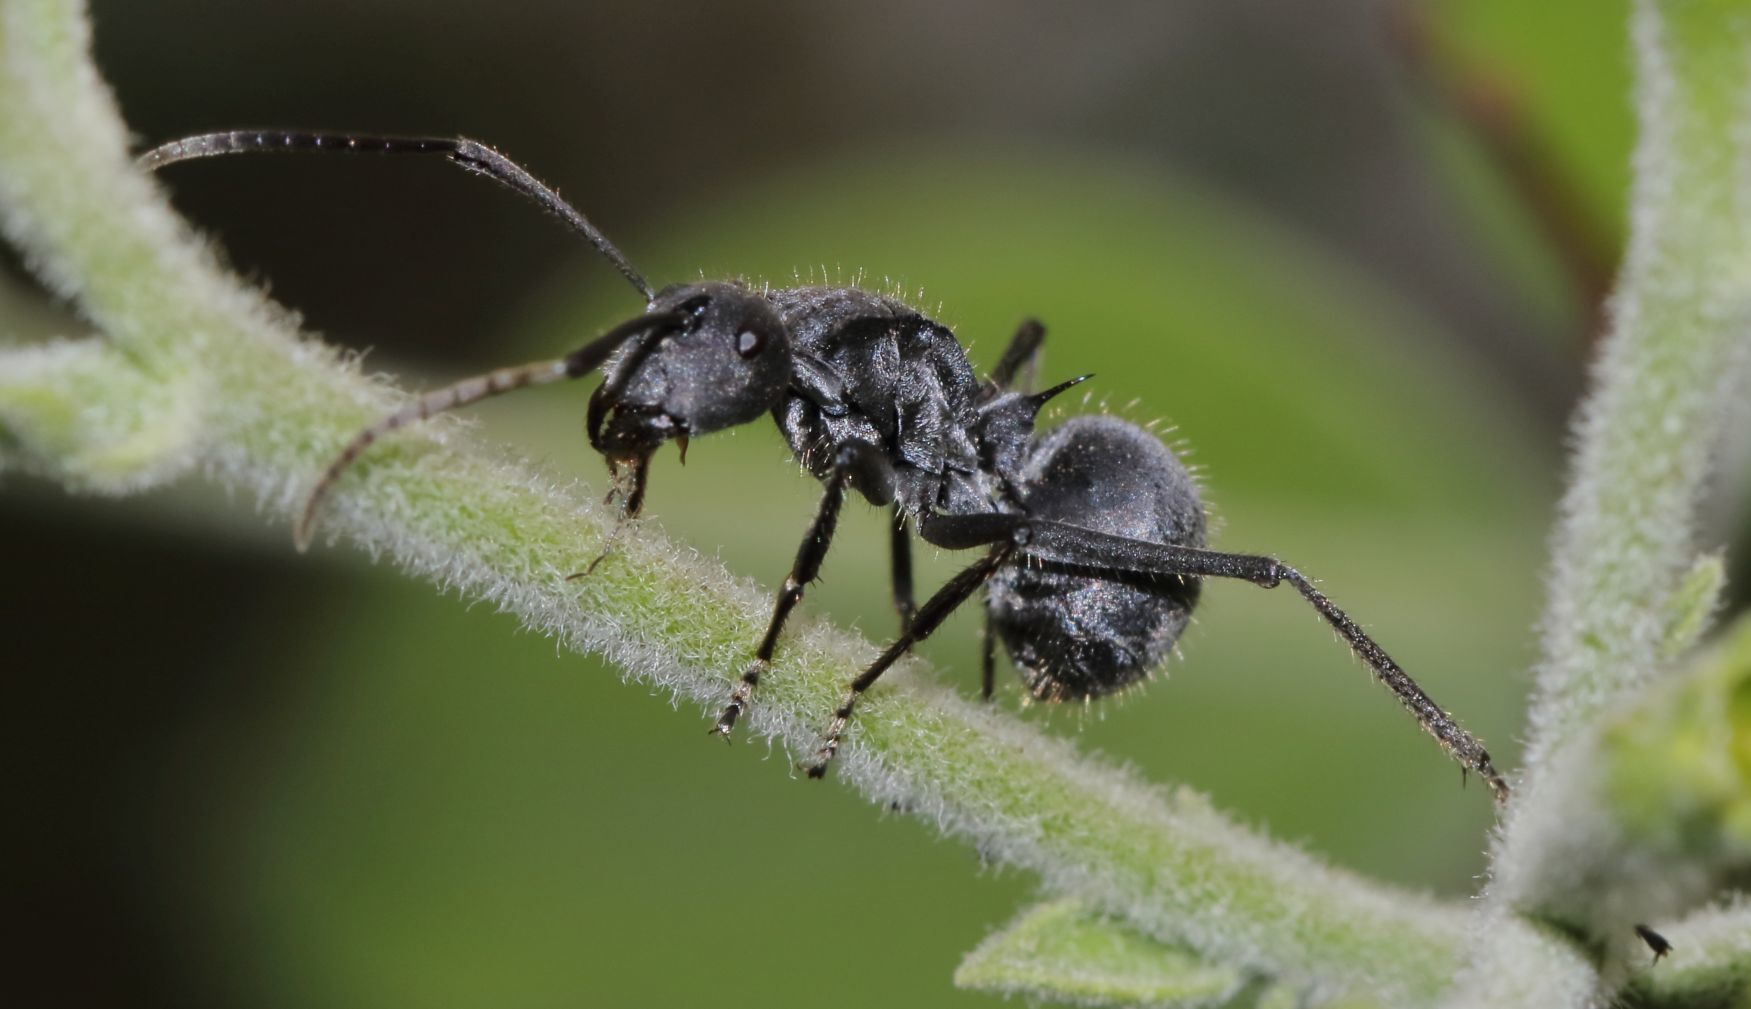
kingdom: Animalia
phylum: Arthropoda
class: Insecta
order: Hymenoptera
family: Formicidae
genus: Polyrhachis
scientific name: Polyrhachis schistacea
